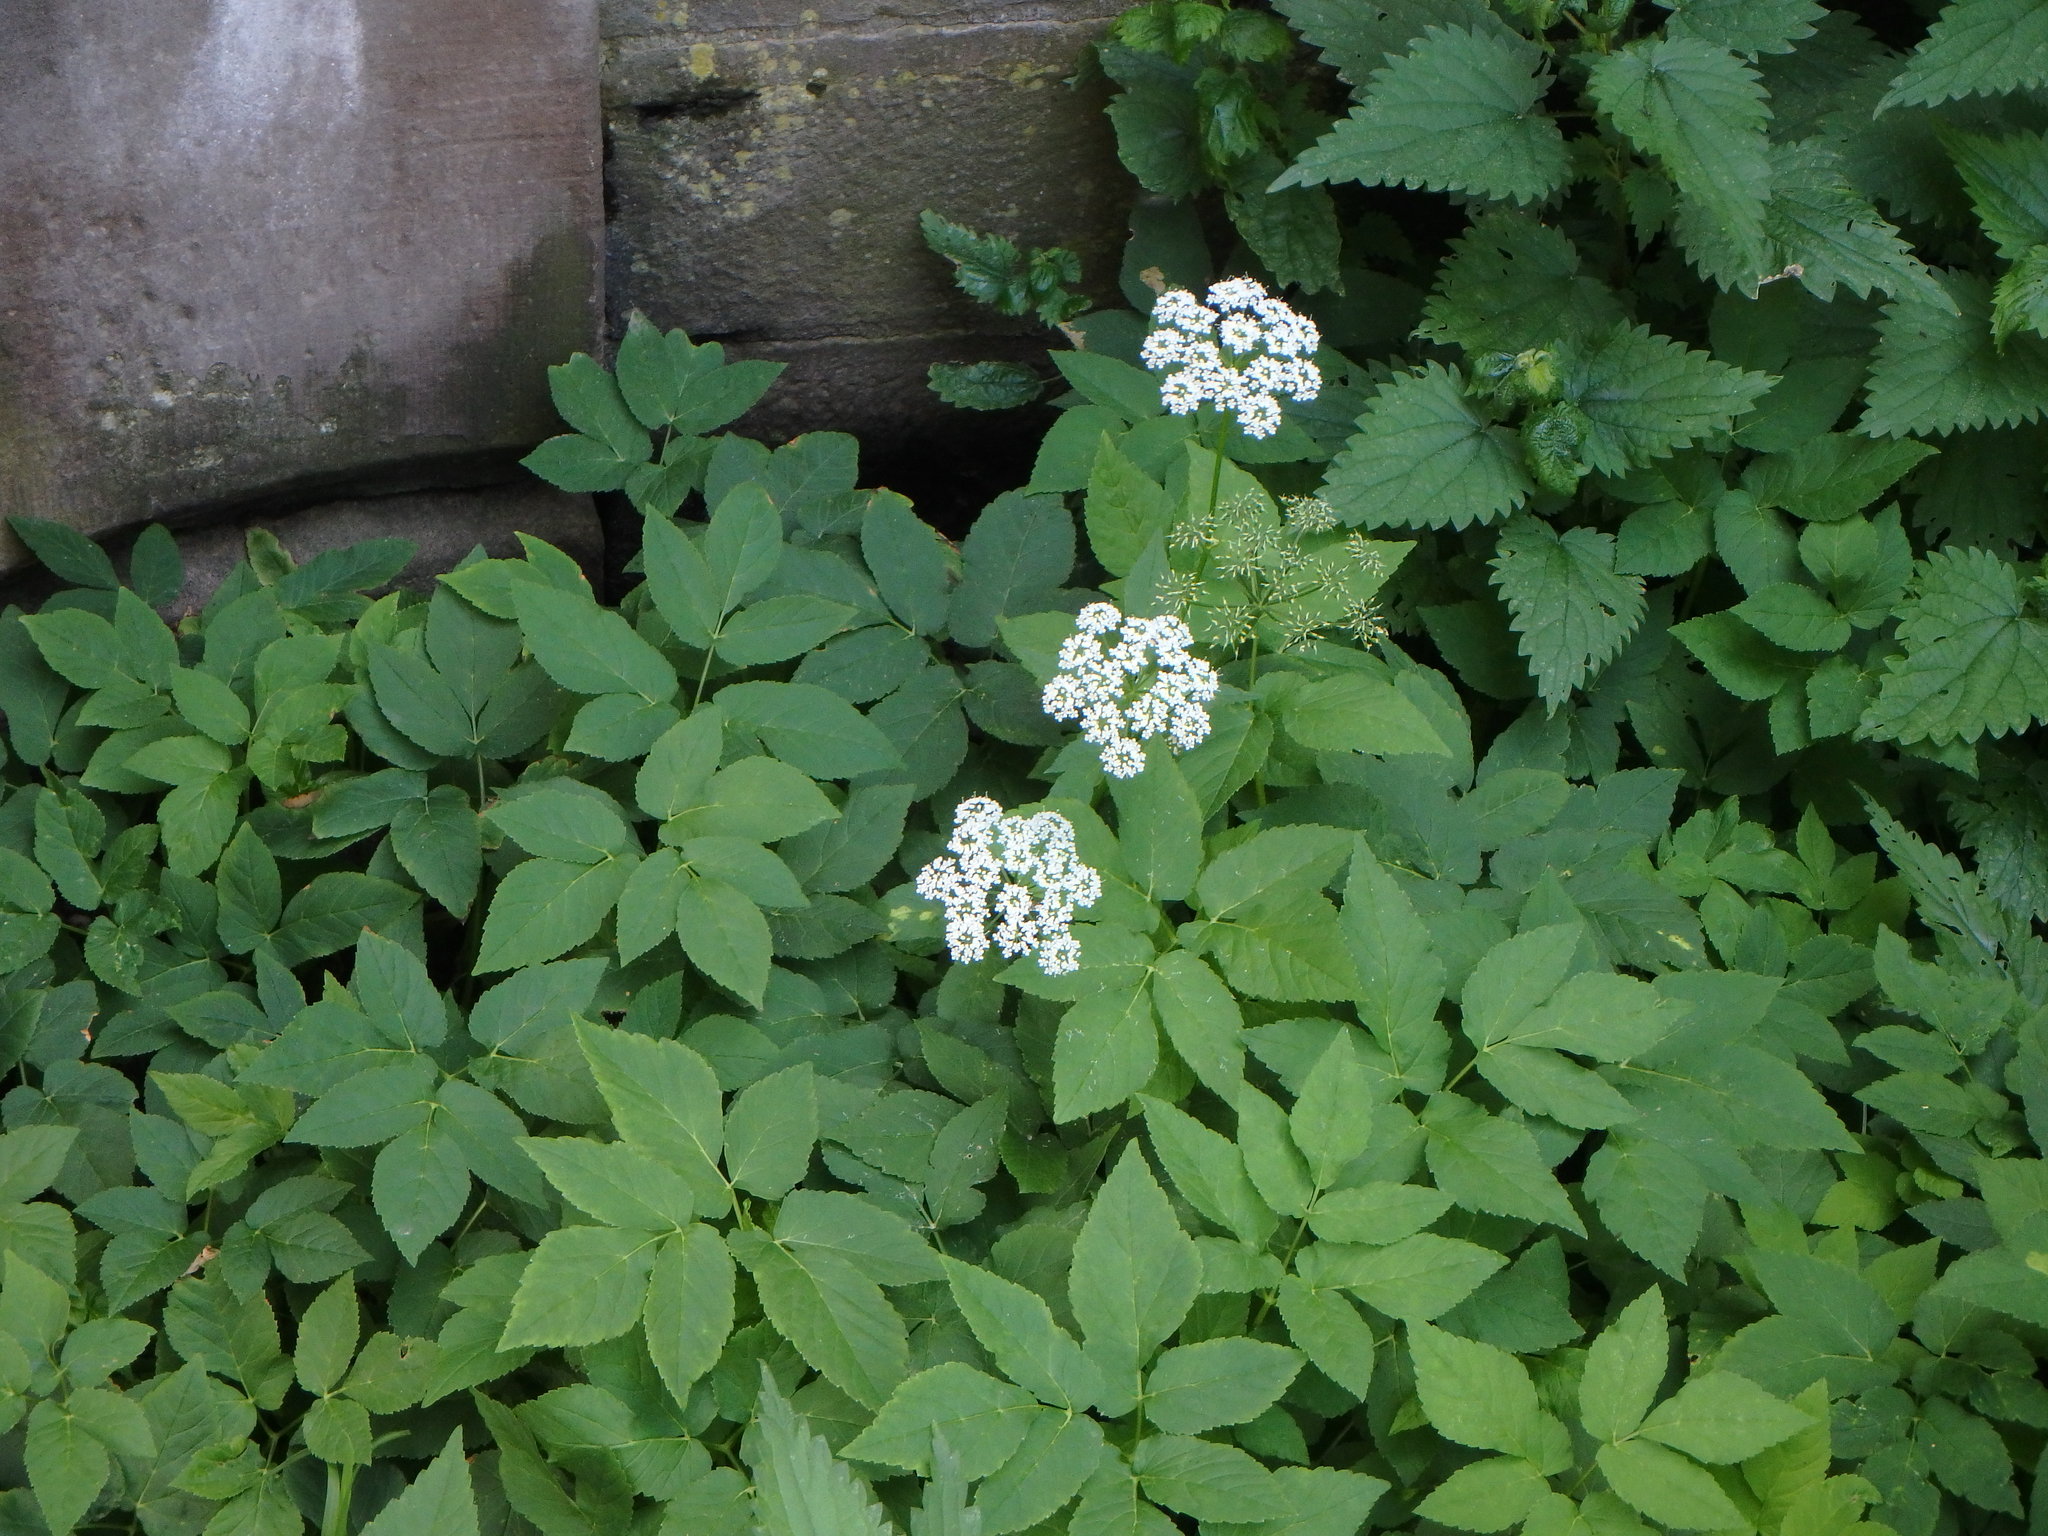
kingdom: Plantae
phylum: Tracheophyta
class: Magnoliopsida
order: Apiales
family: Apiaceae
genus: Aegopodium
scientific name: Aegopodium podagraria
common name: Ground-elder
